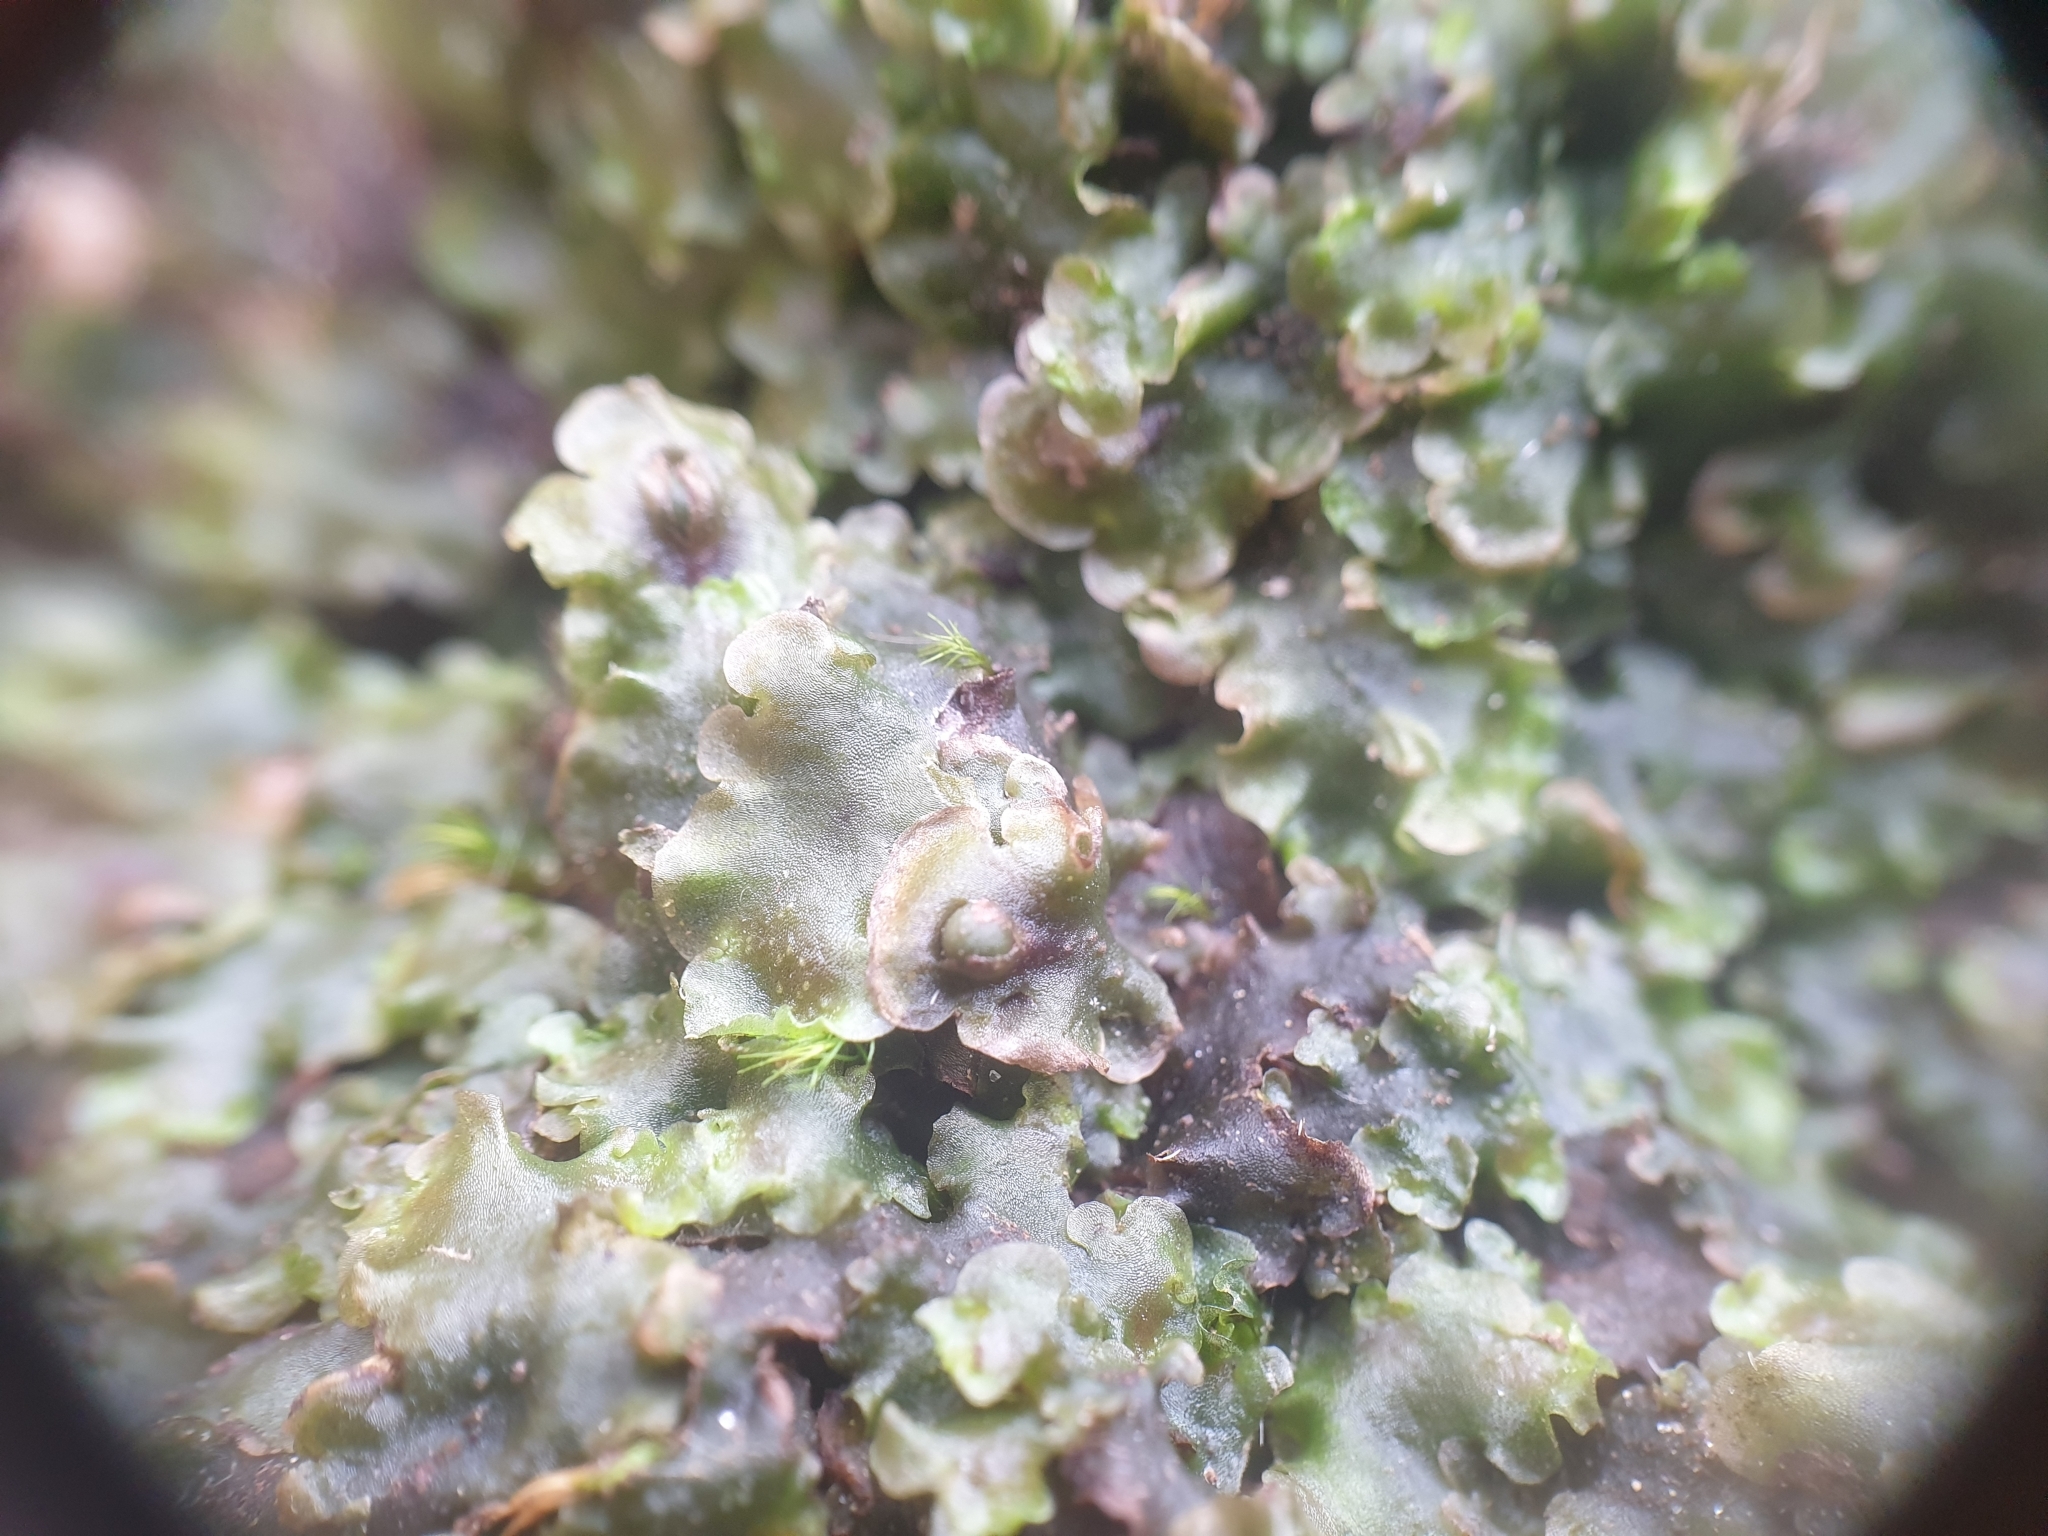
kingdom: Plantae
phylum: Marchantiophyta
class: Jungermanniopsida
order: Pelliales
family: Pelliaceae
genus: Pellia
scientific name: Pellia epiphylla
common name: Common pellia
